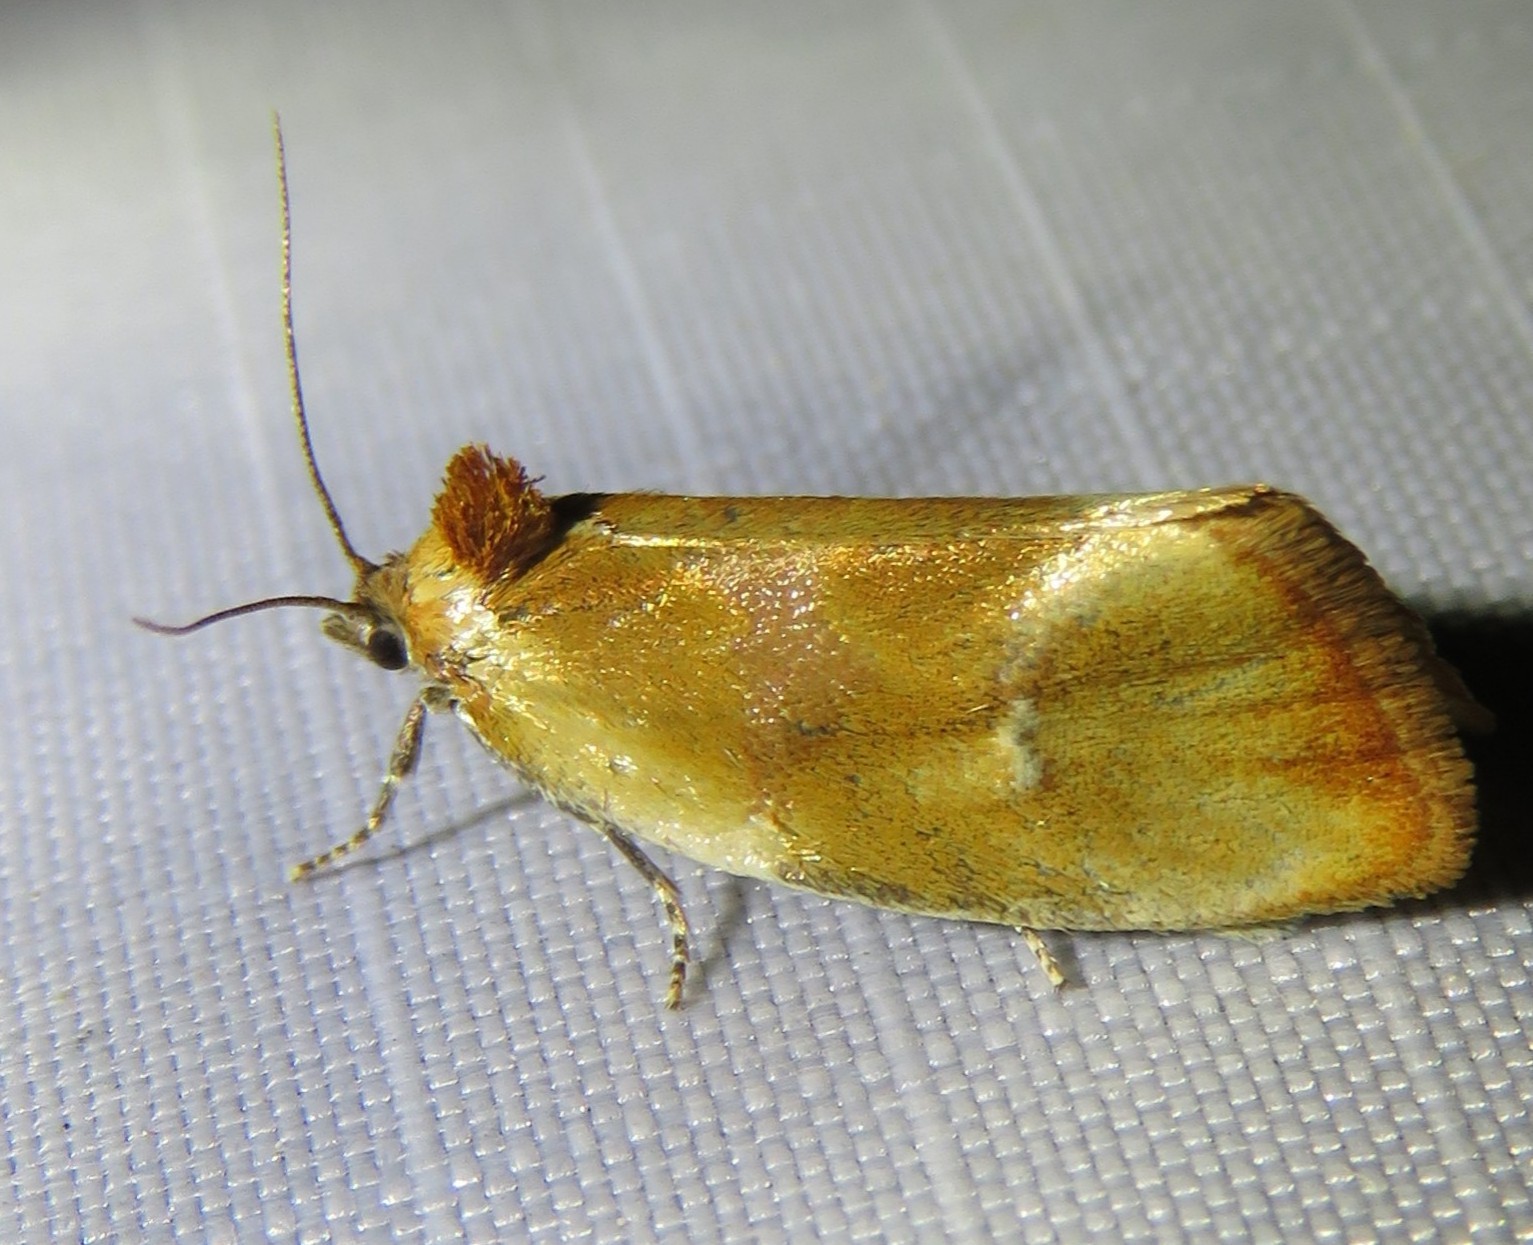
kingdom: Animalia
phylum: Arthropoda
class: Insecta
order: Lepidoptera
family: Tortricidae
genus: Eulia
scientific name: Eulia ministrana
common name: Brassy twist
